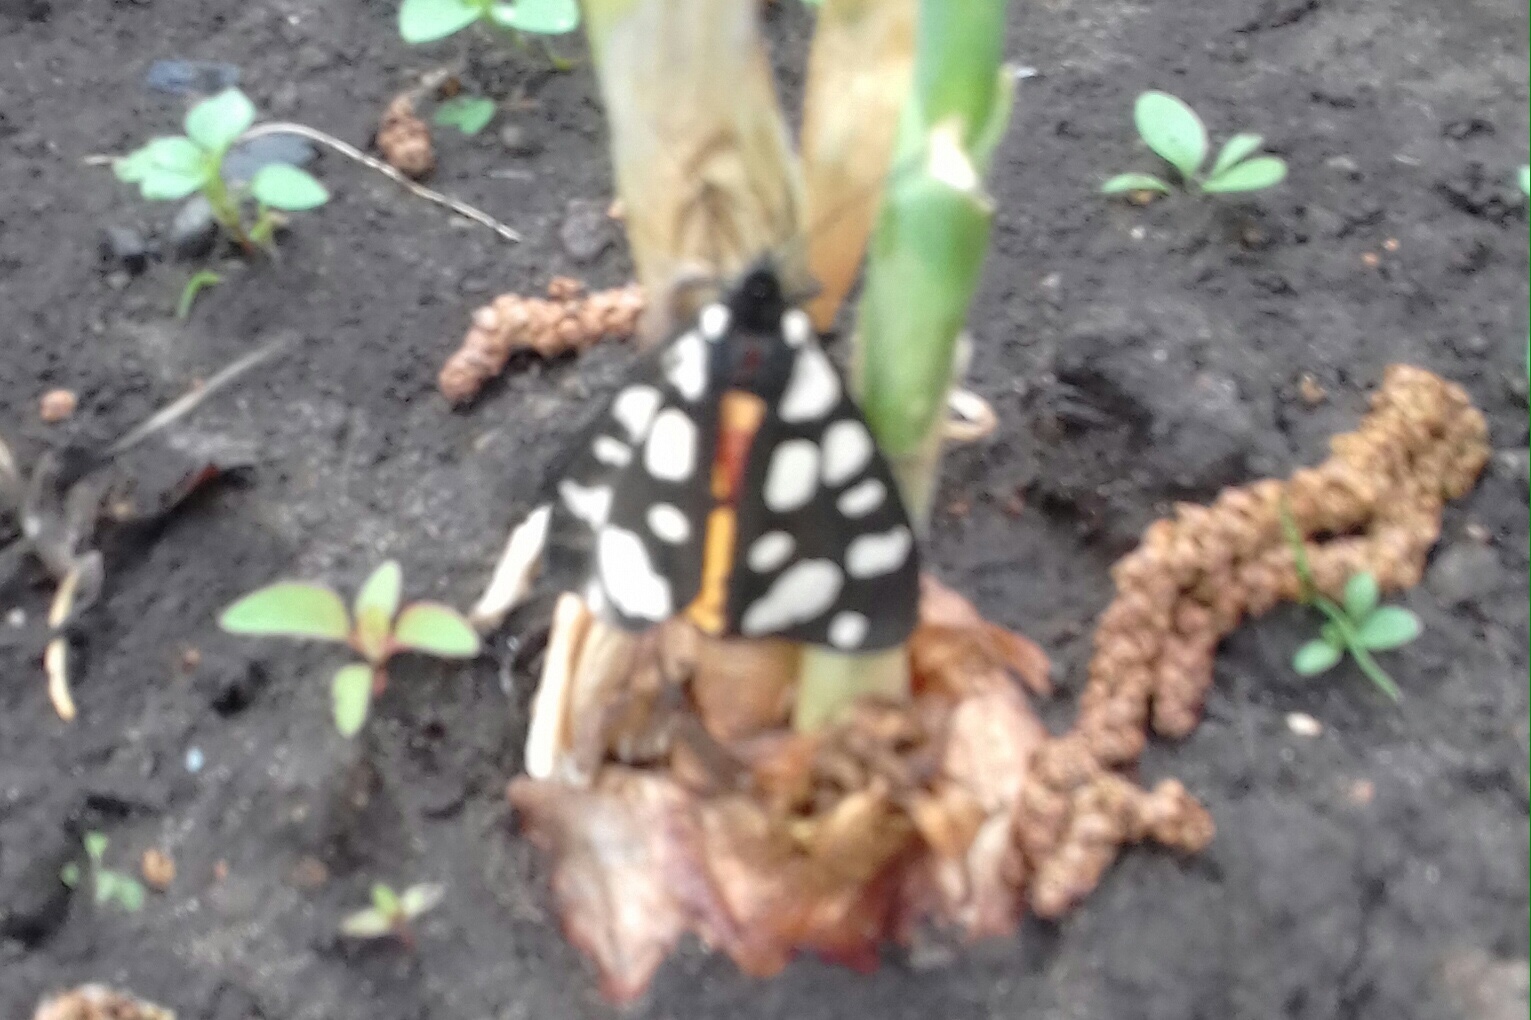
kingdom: Animalia
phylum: Arthropoda
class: Insecta
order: Lepidoptera
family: Erebidae
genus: Epicallia
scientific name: Epicallia villica
